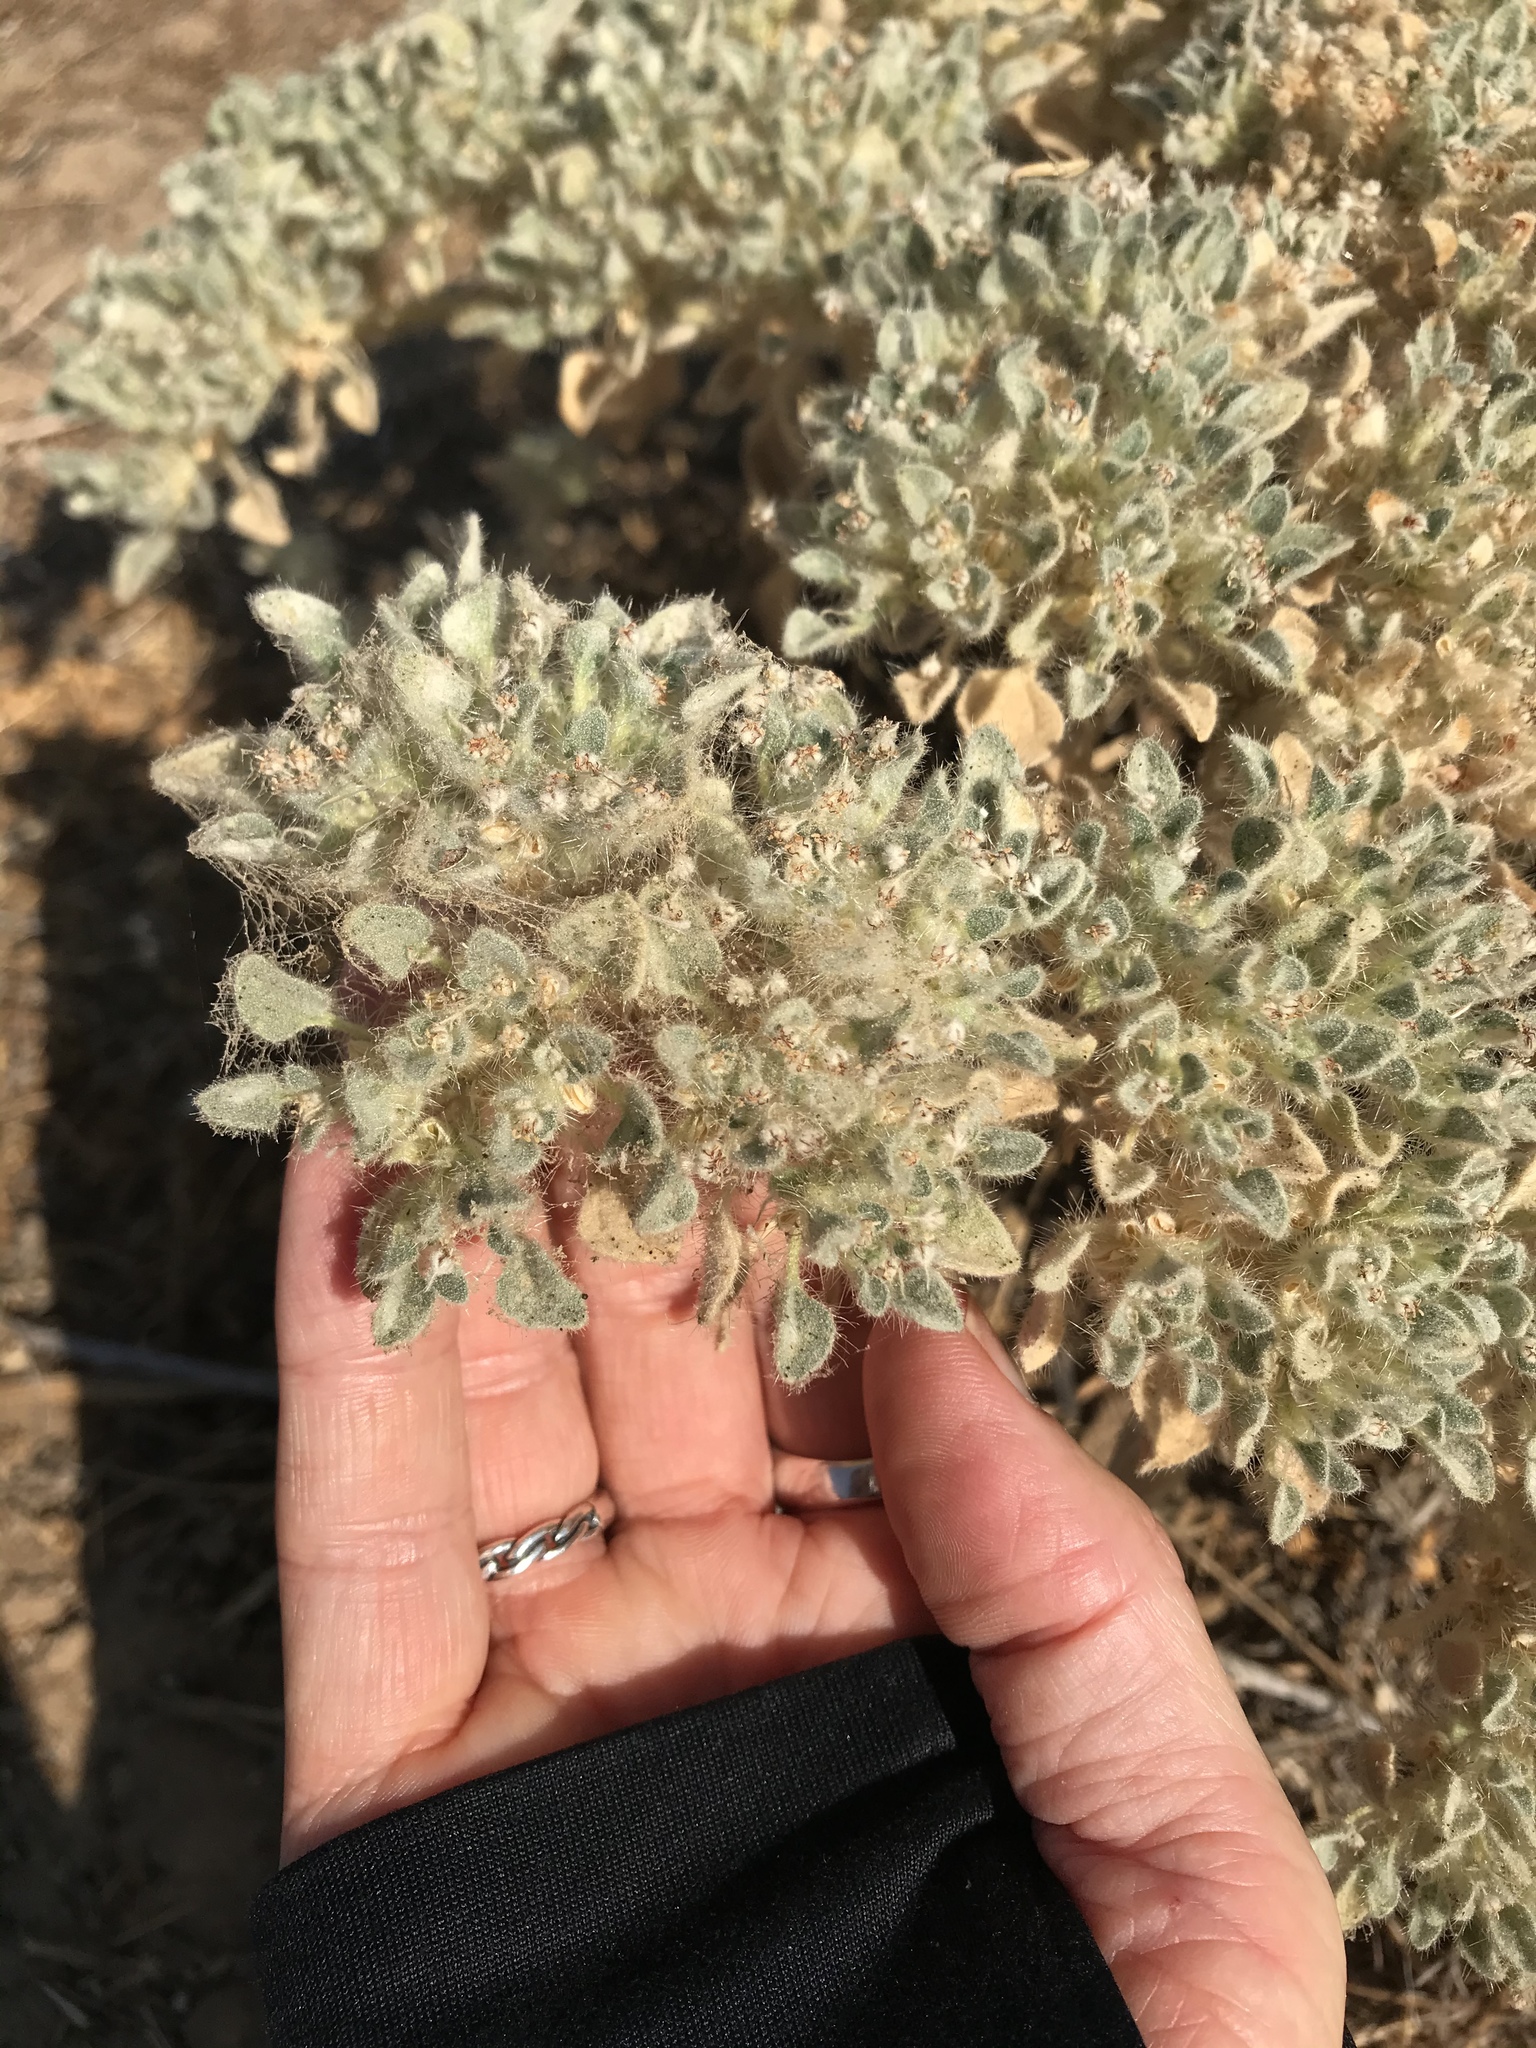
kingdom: Plantae
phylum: Tracheophyta
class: Magnoliopsida
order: Malpighiales
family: Euphorbiaceae
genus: Croton
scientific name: Croton setiger
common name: Dove weed
